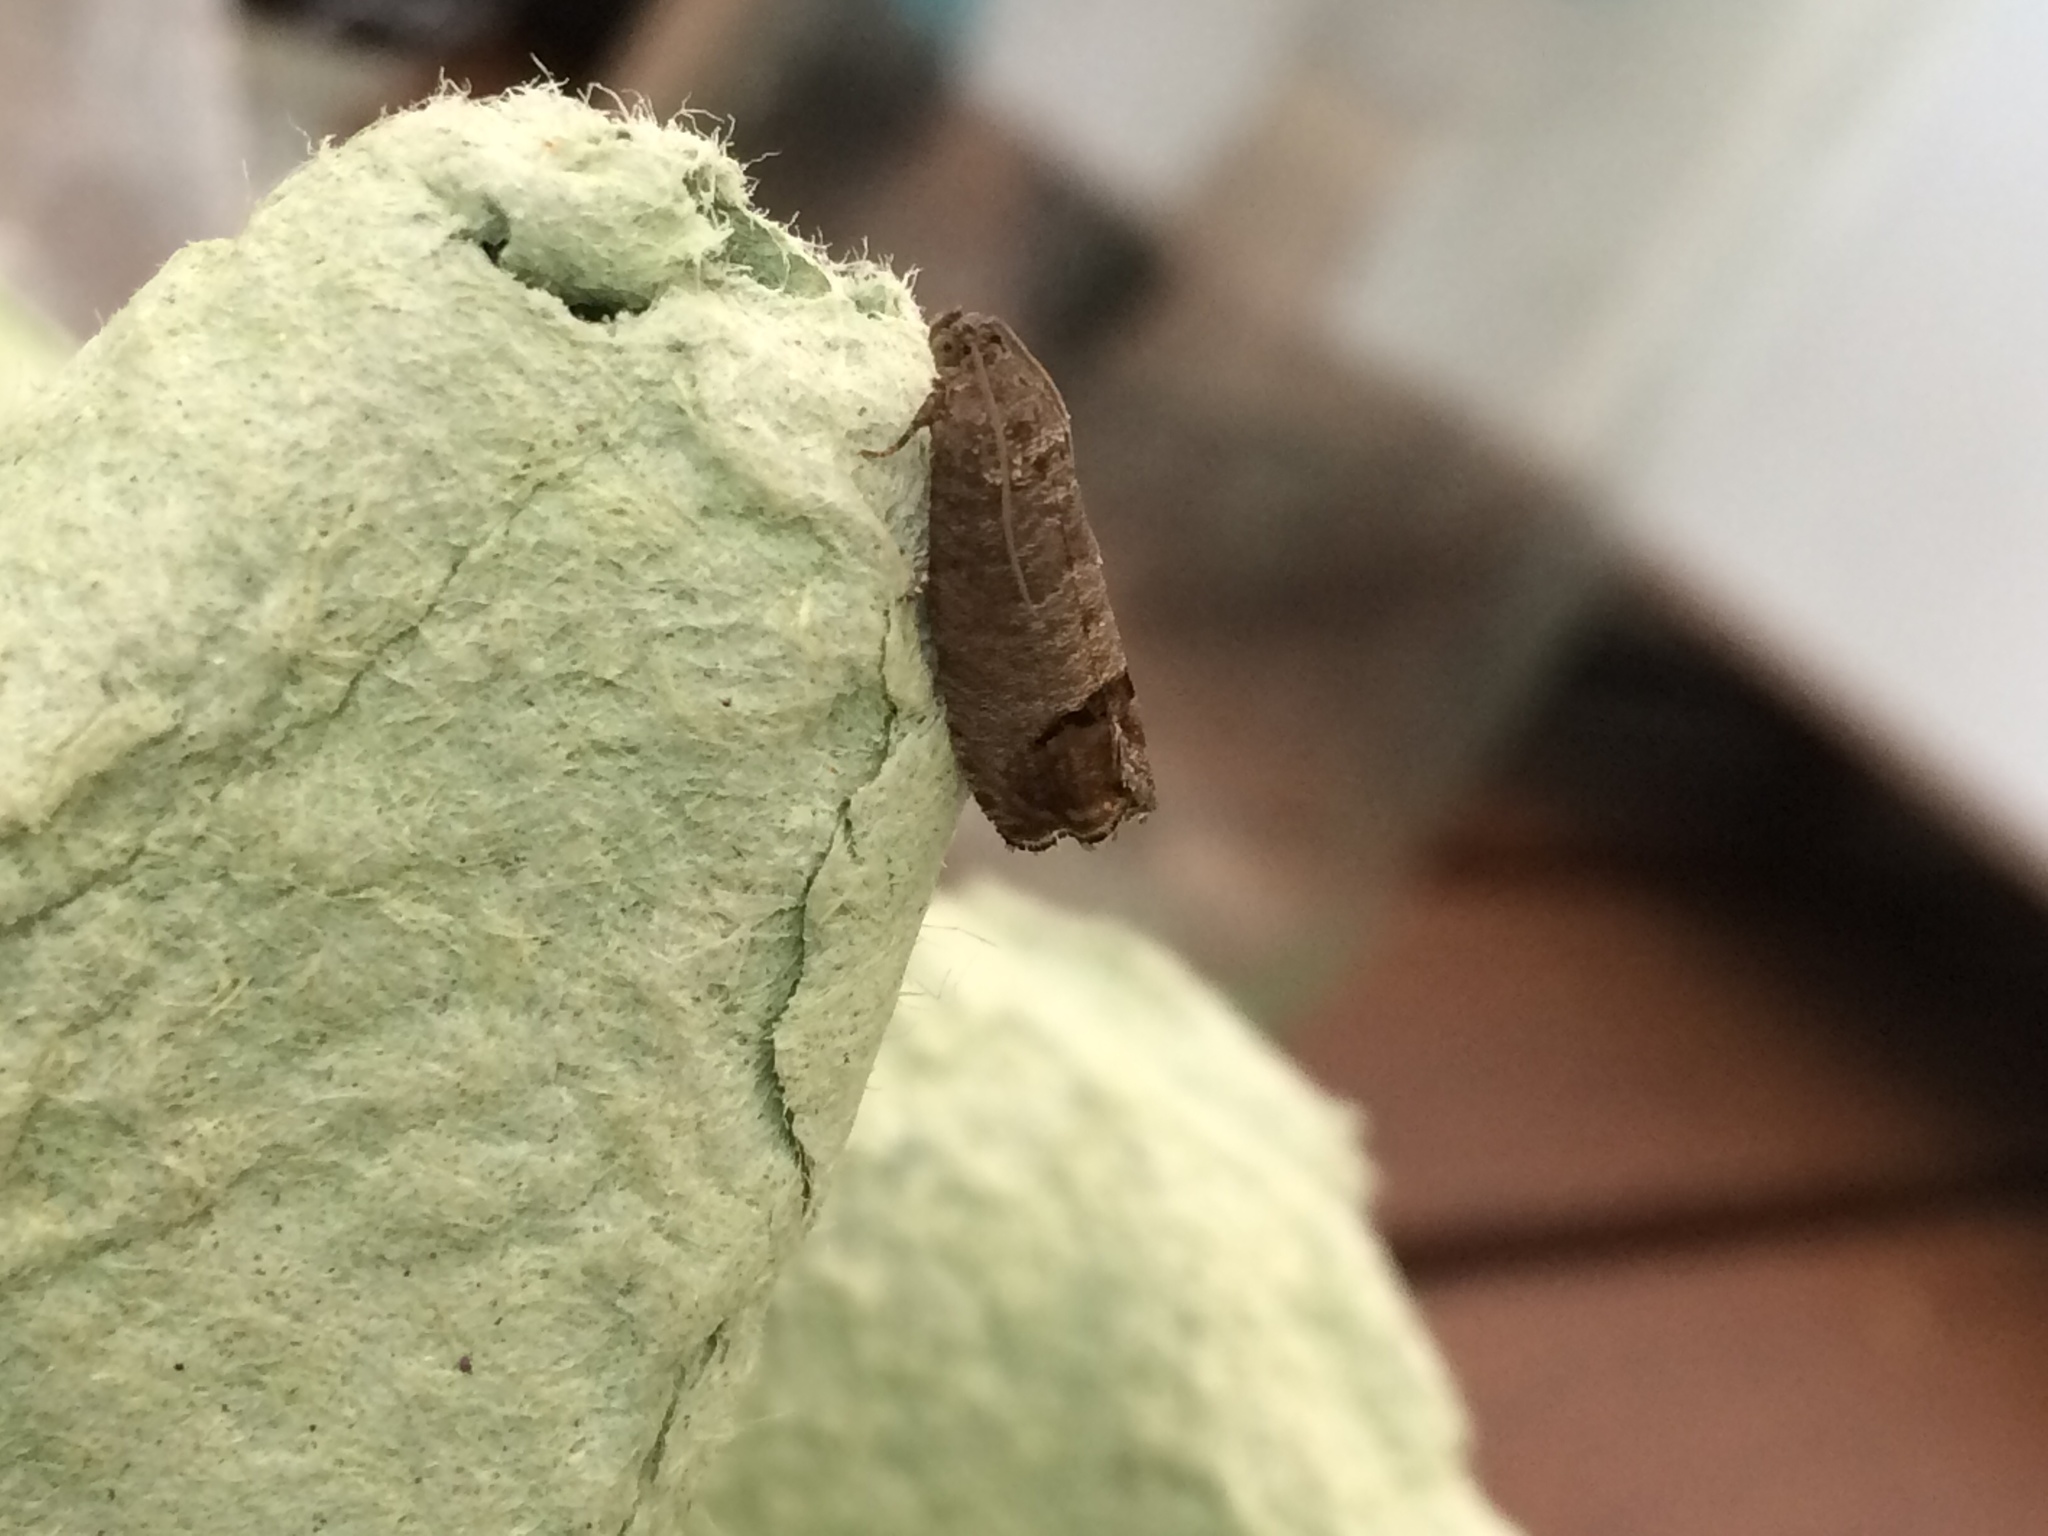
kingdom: Animalia
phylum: Arthropoda
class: Insecta
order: Lepidoptera
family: Tortricidae
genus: Cydia
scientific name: Cydia pomonella
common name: Codling moth
